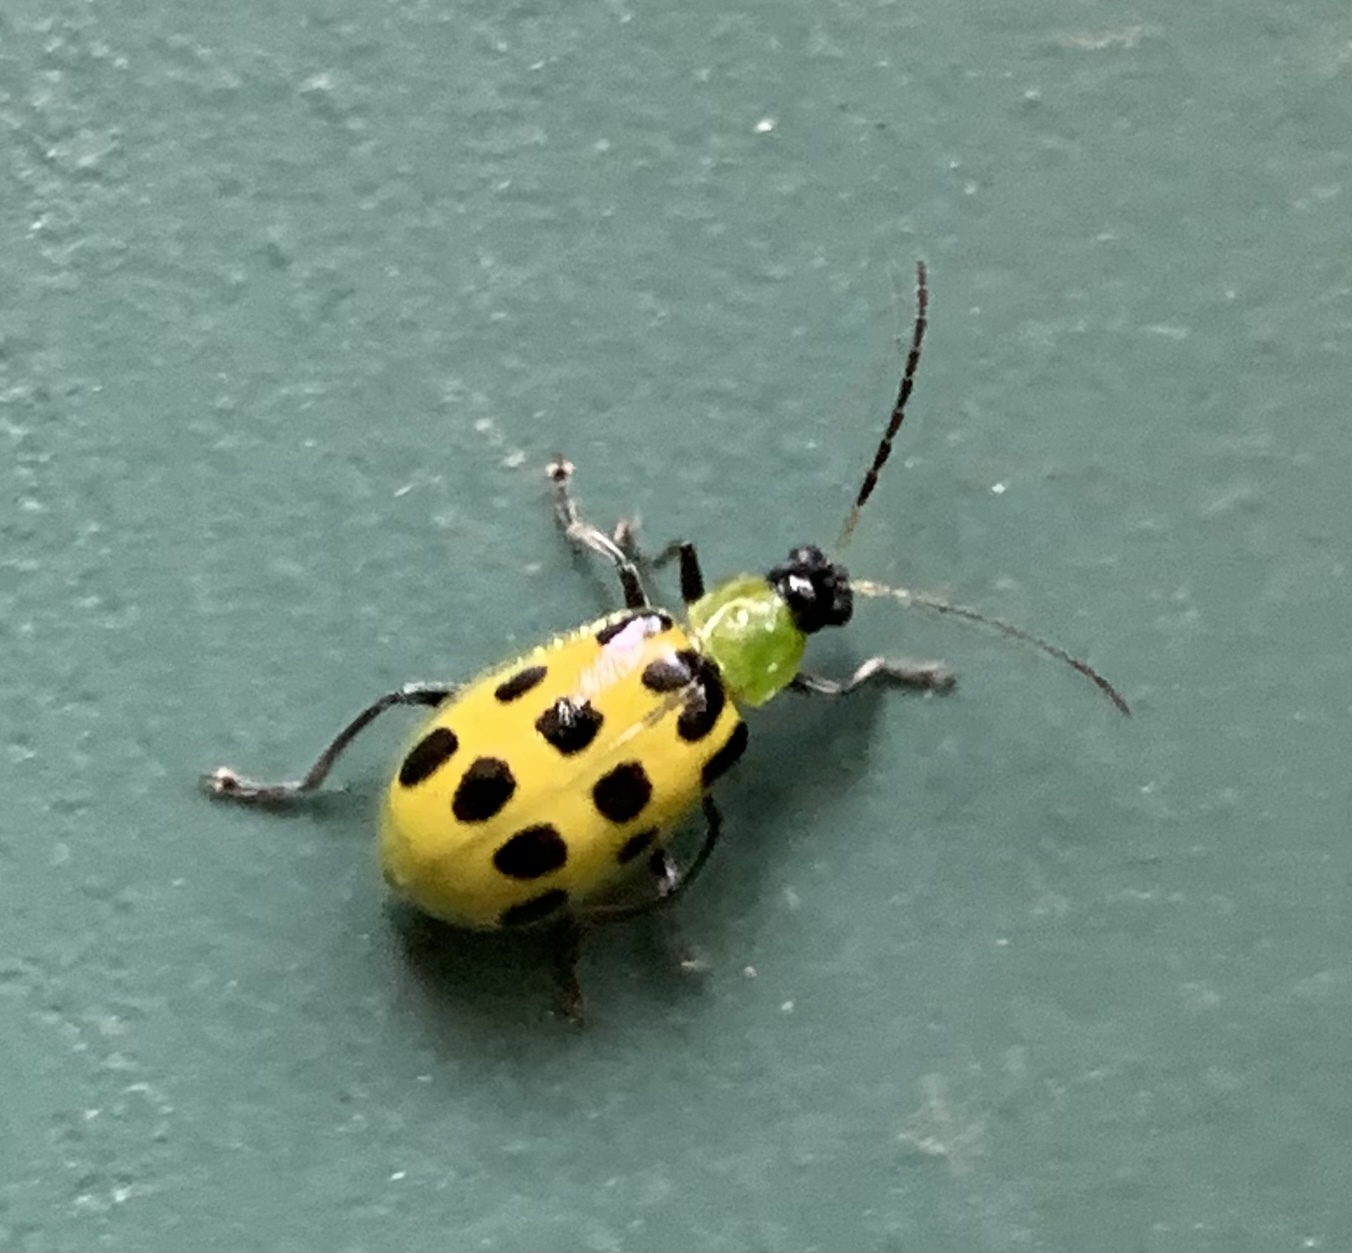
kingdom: Animalia
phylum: Arthropoda
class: Insecta
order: Coleoptera
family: Chrysomelidae
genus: Diabrotica
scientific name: Diabrotica undecimpunctata
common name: Spotted cucumber beetle
